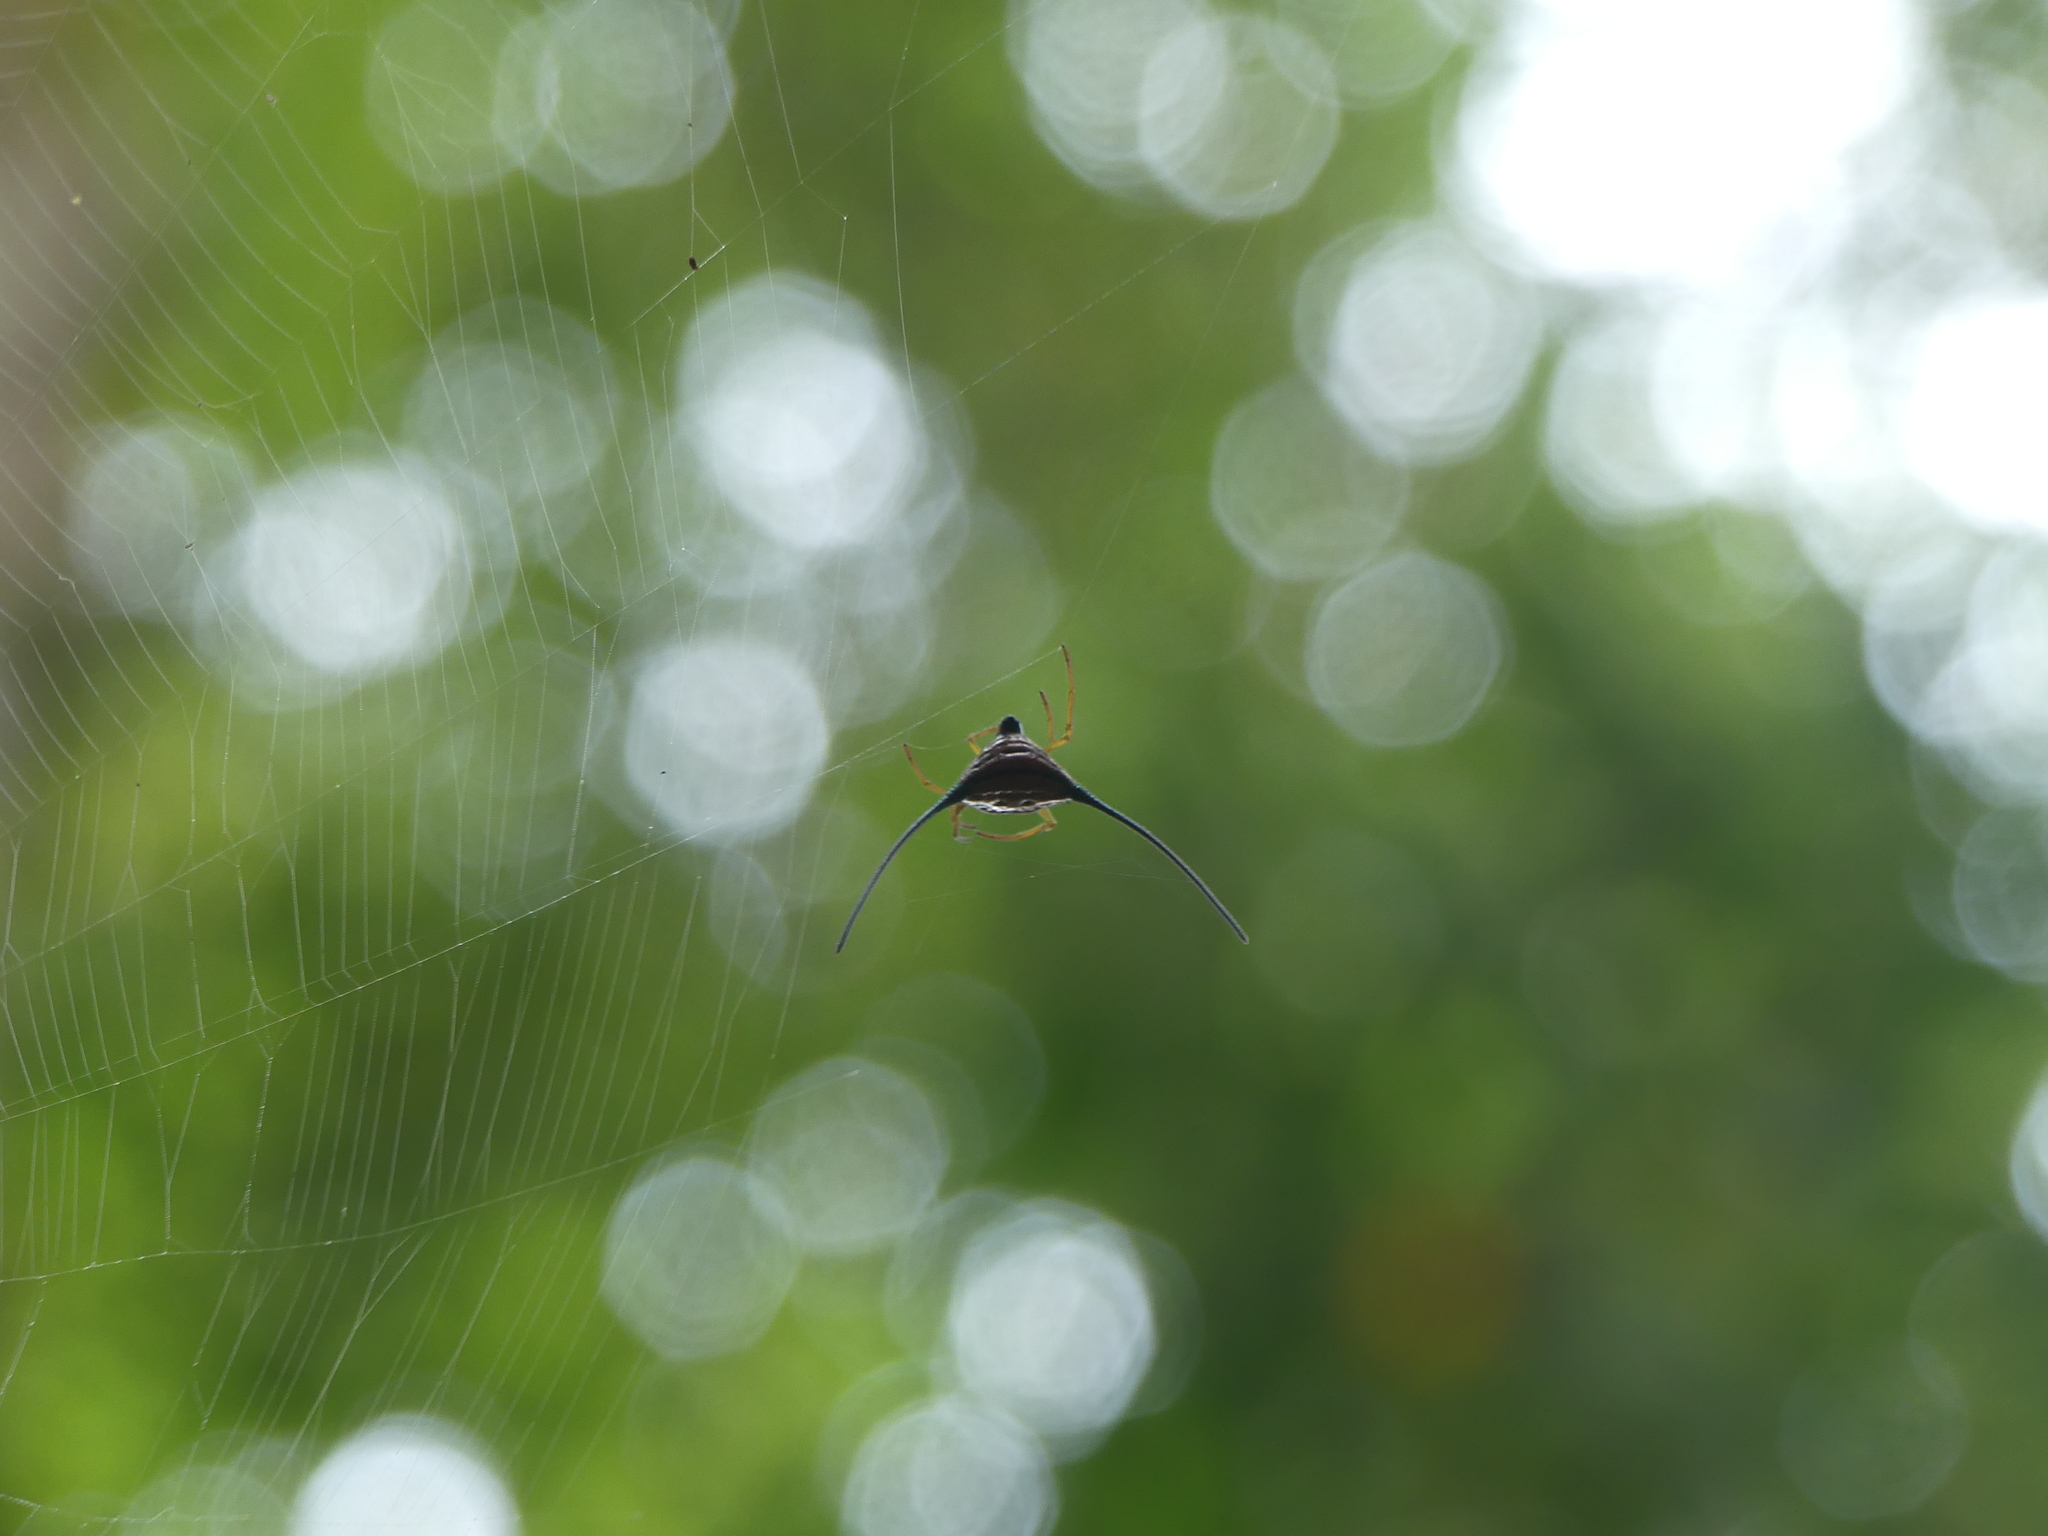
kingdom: Animalia
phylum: Arthropoda
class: Arachnida
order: Araneae
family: Araneidae
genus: Macracantha
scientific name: Macracantha arcuata
